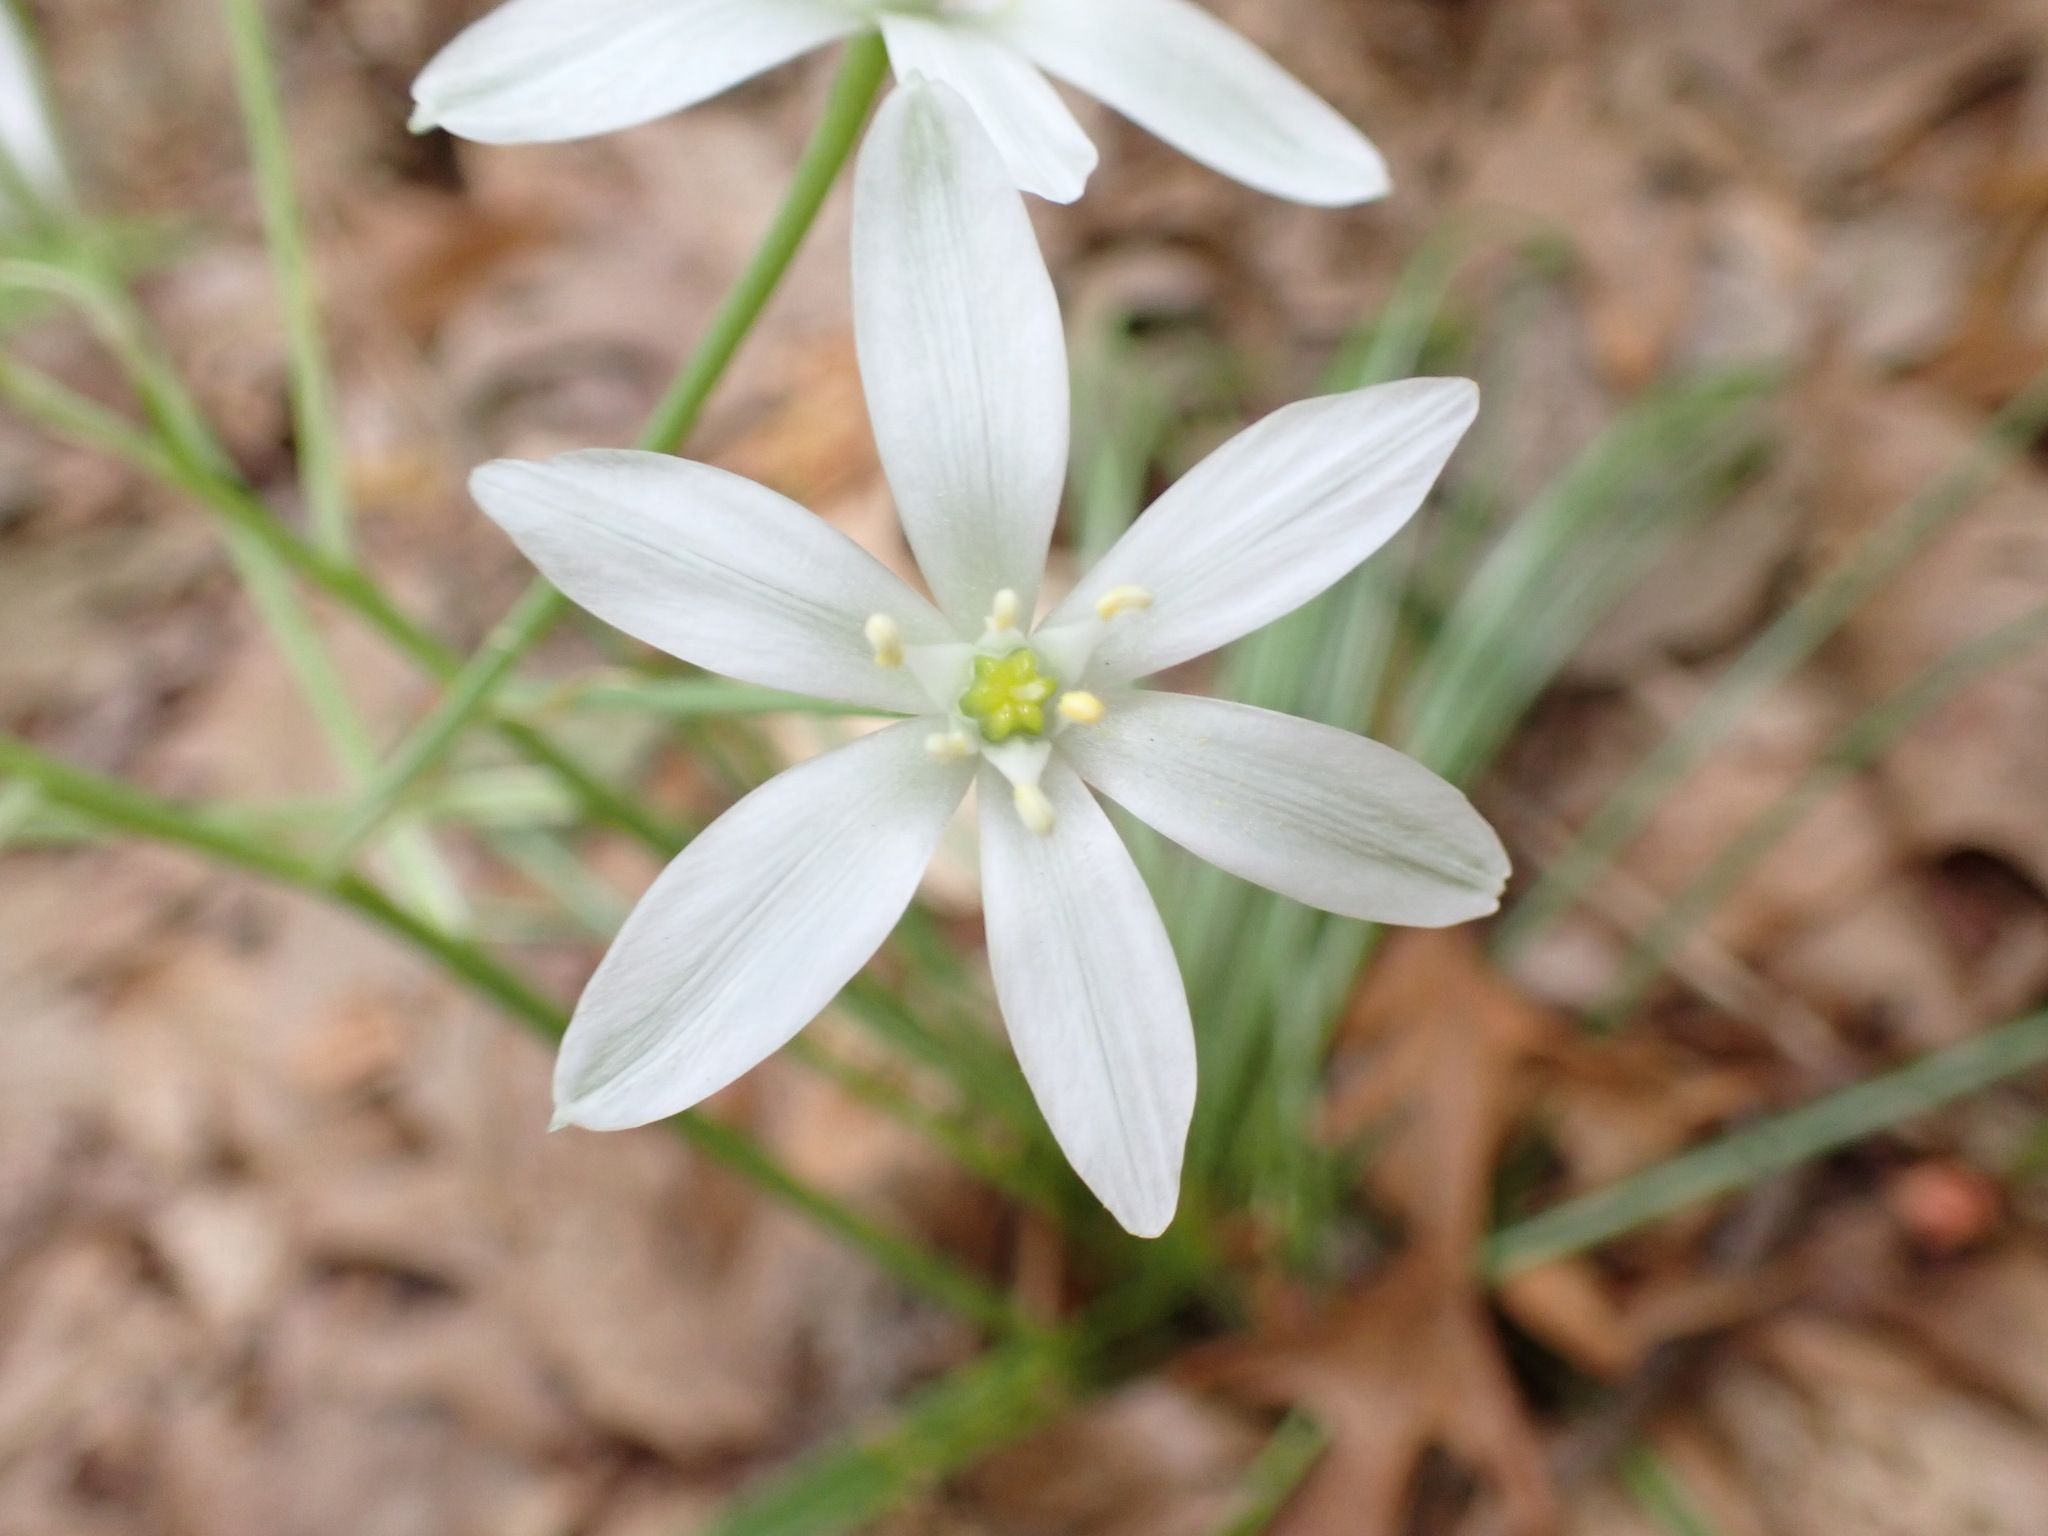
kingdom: Plantae
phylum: Tracheophyta
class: Liliopsida
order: Asparagales
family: Asparagaceae
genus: Ornithogalum
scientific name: Ornithogalum umbellatum
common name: Garden star-of-bethlehem
